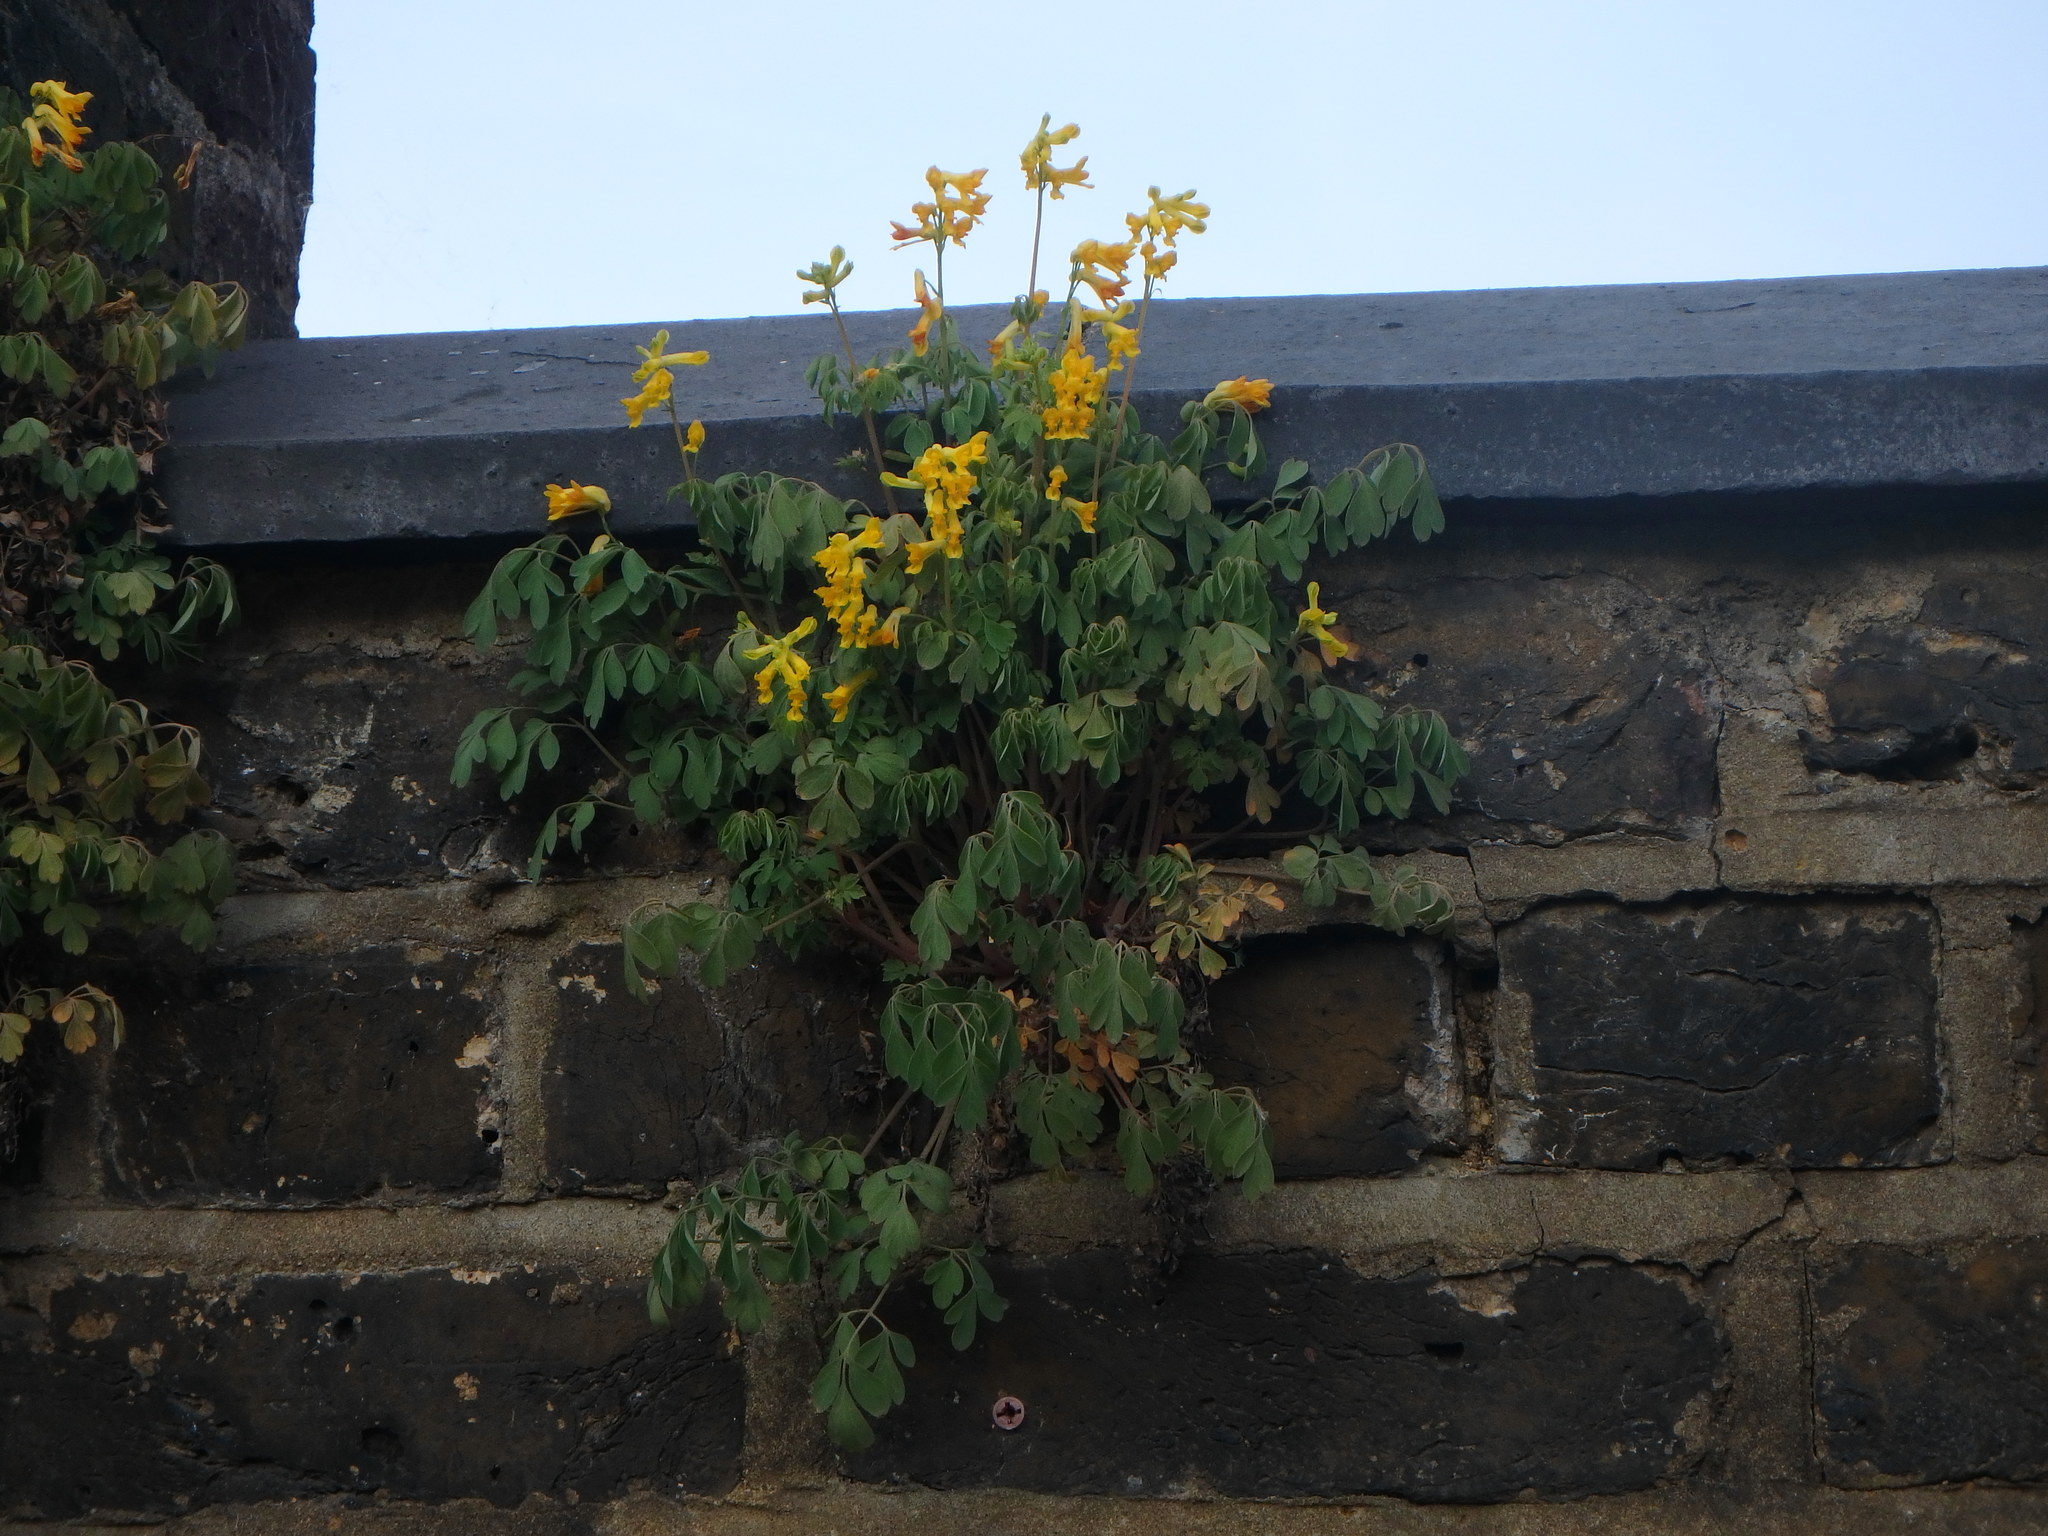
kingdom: Plantae
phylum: Tracheophyta
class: Magnoliopsida
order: Ranunculales
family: Papaveraceae
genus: Pseudofumaria
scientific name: Pseudofumaria lutea
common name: Yellow corydalis
